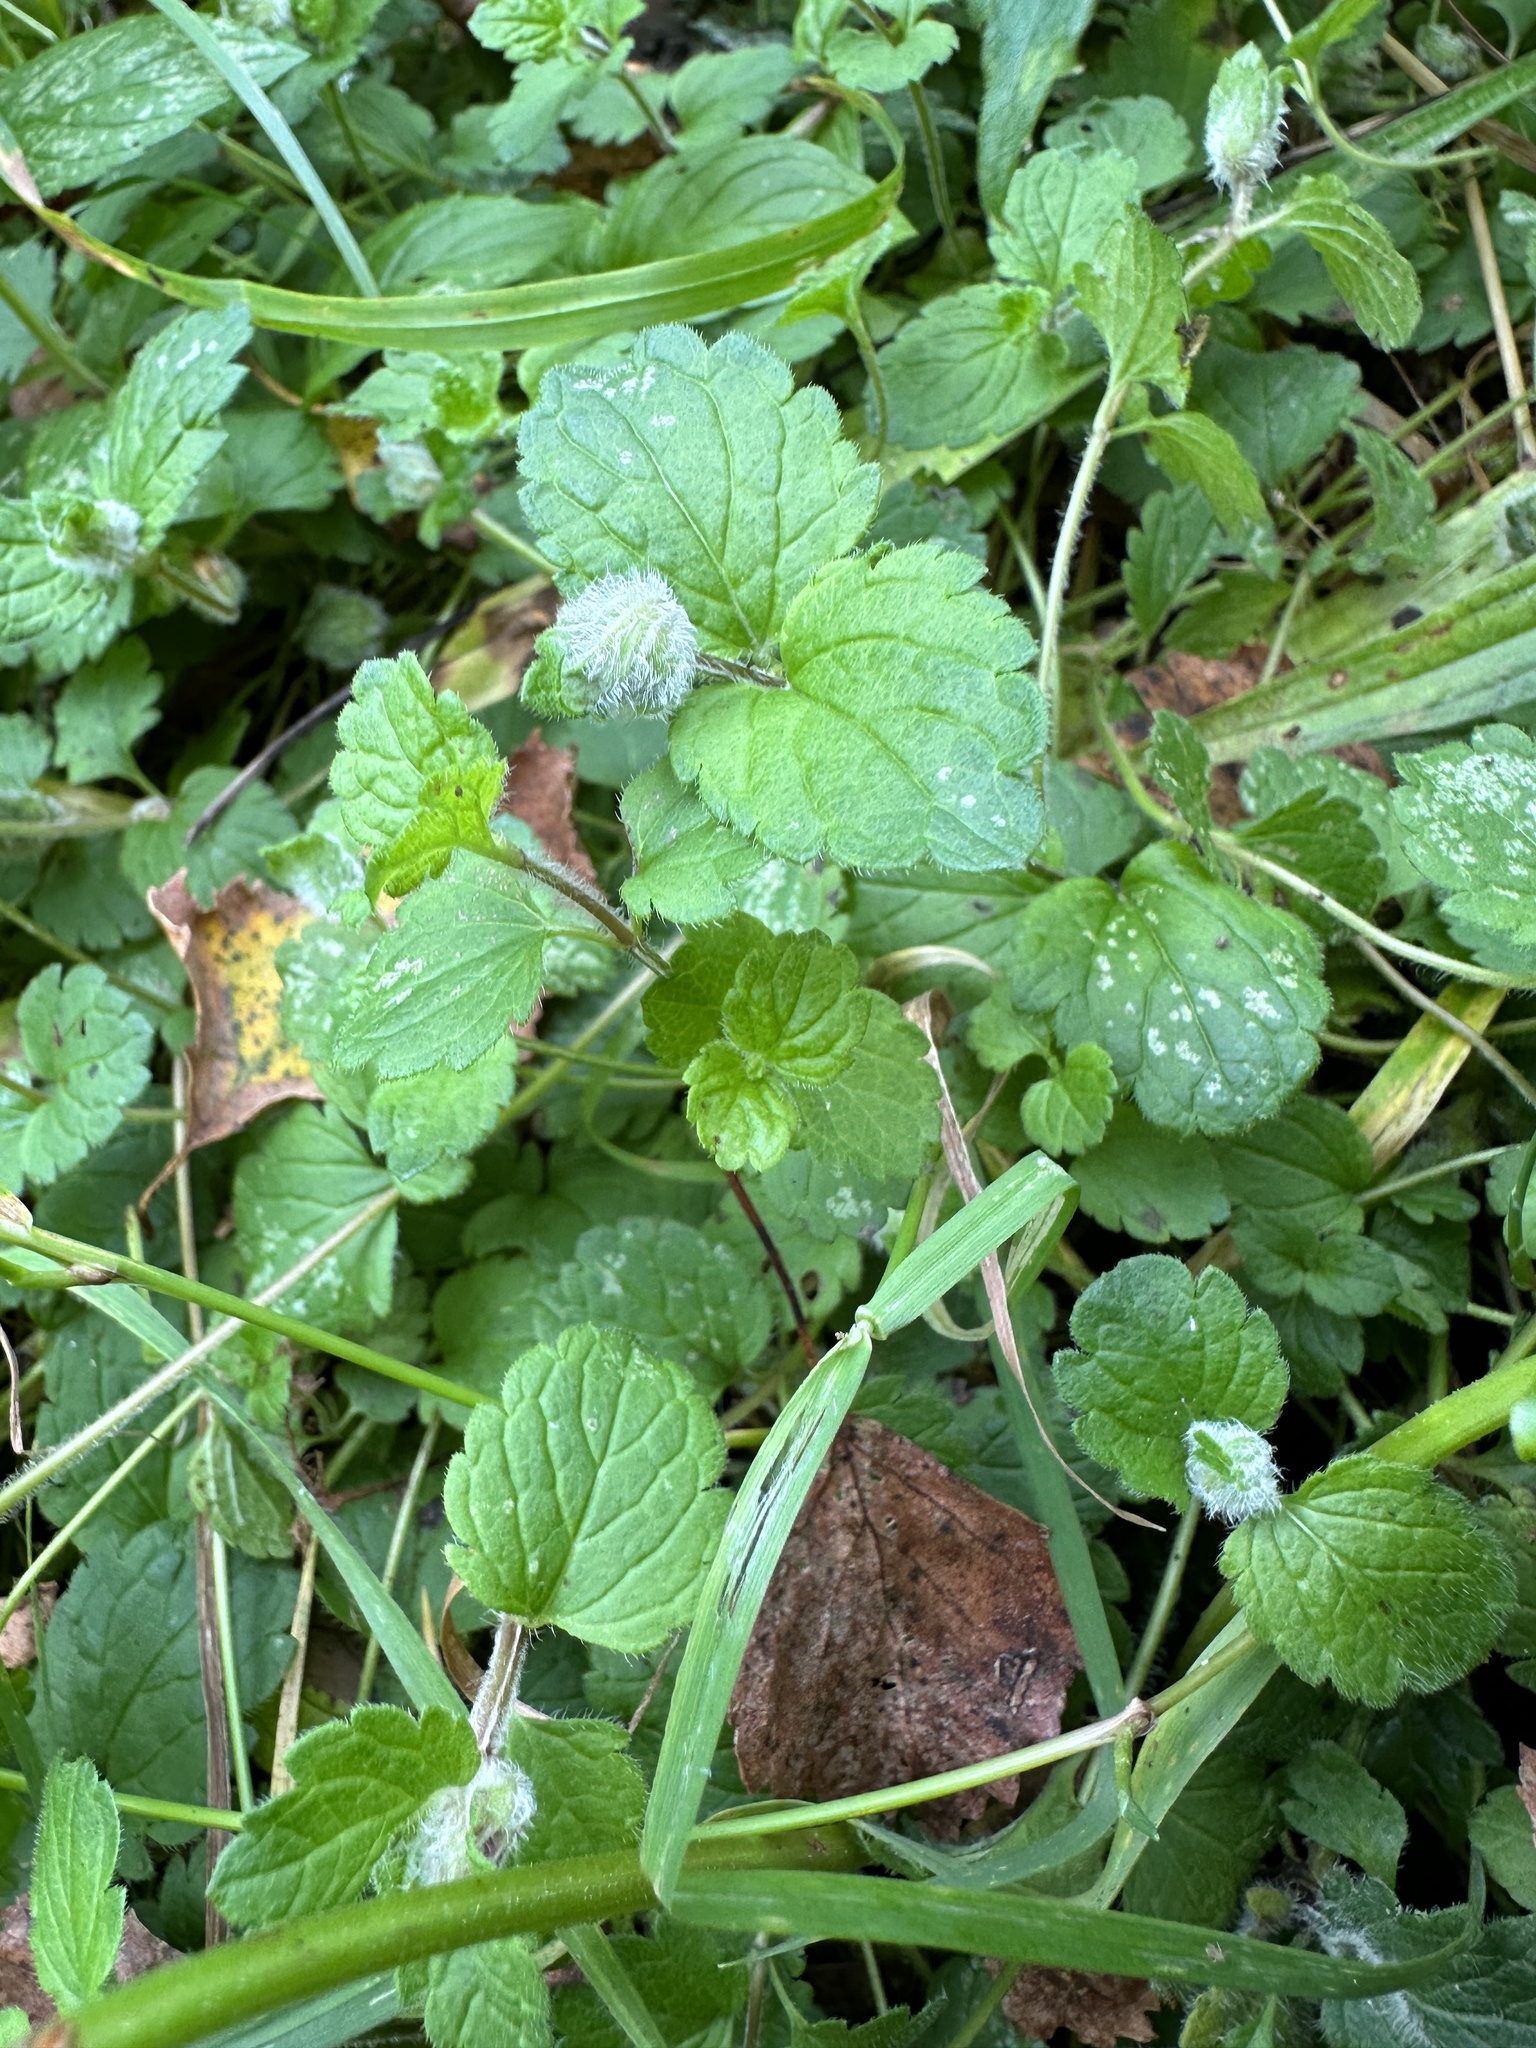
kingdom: Animalia
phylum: Arthropoda
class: Insecta
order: Diptera
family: Cecidomyiidae
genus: Jaapiella
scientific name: Jaapiella veronicae
